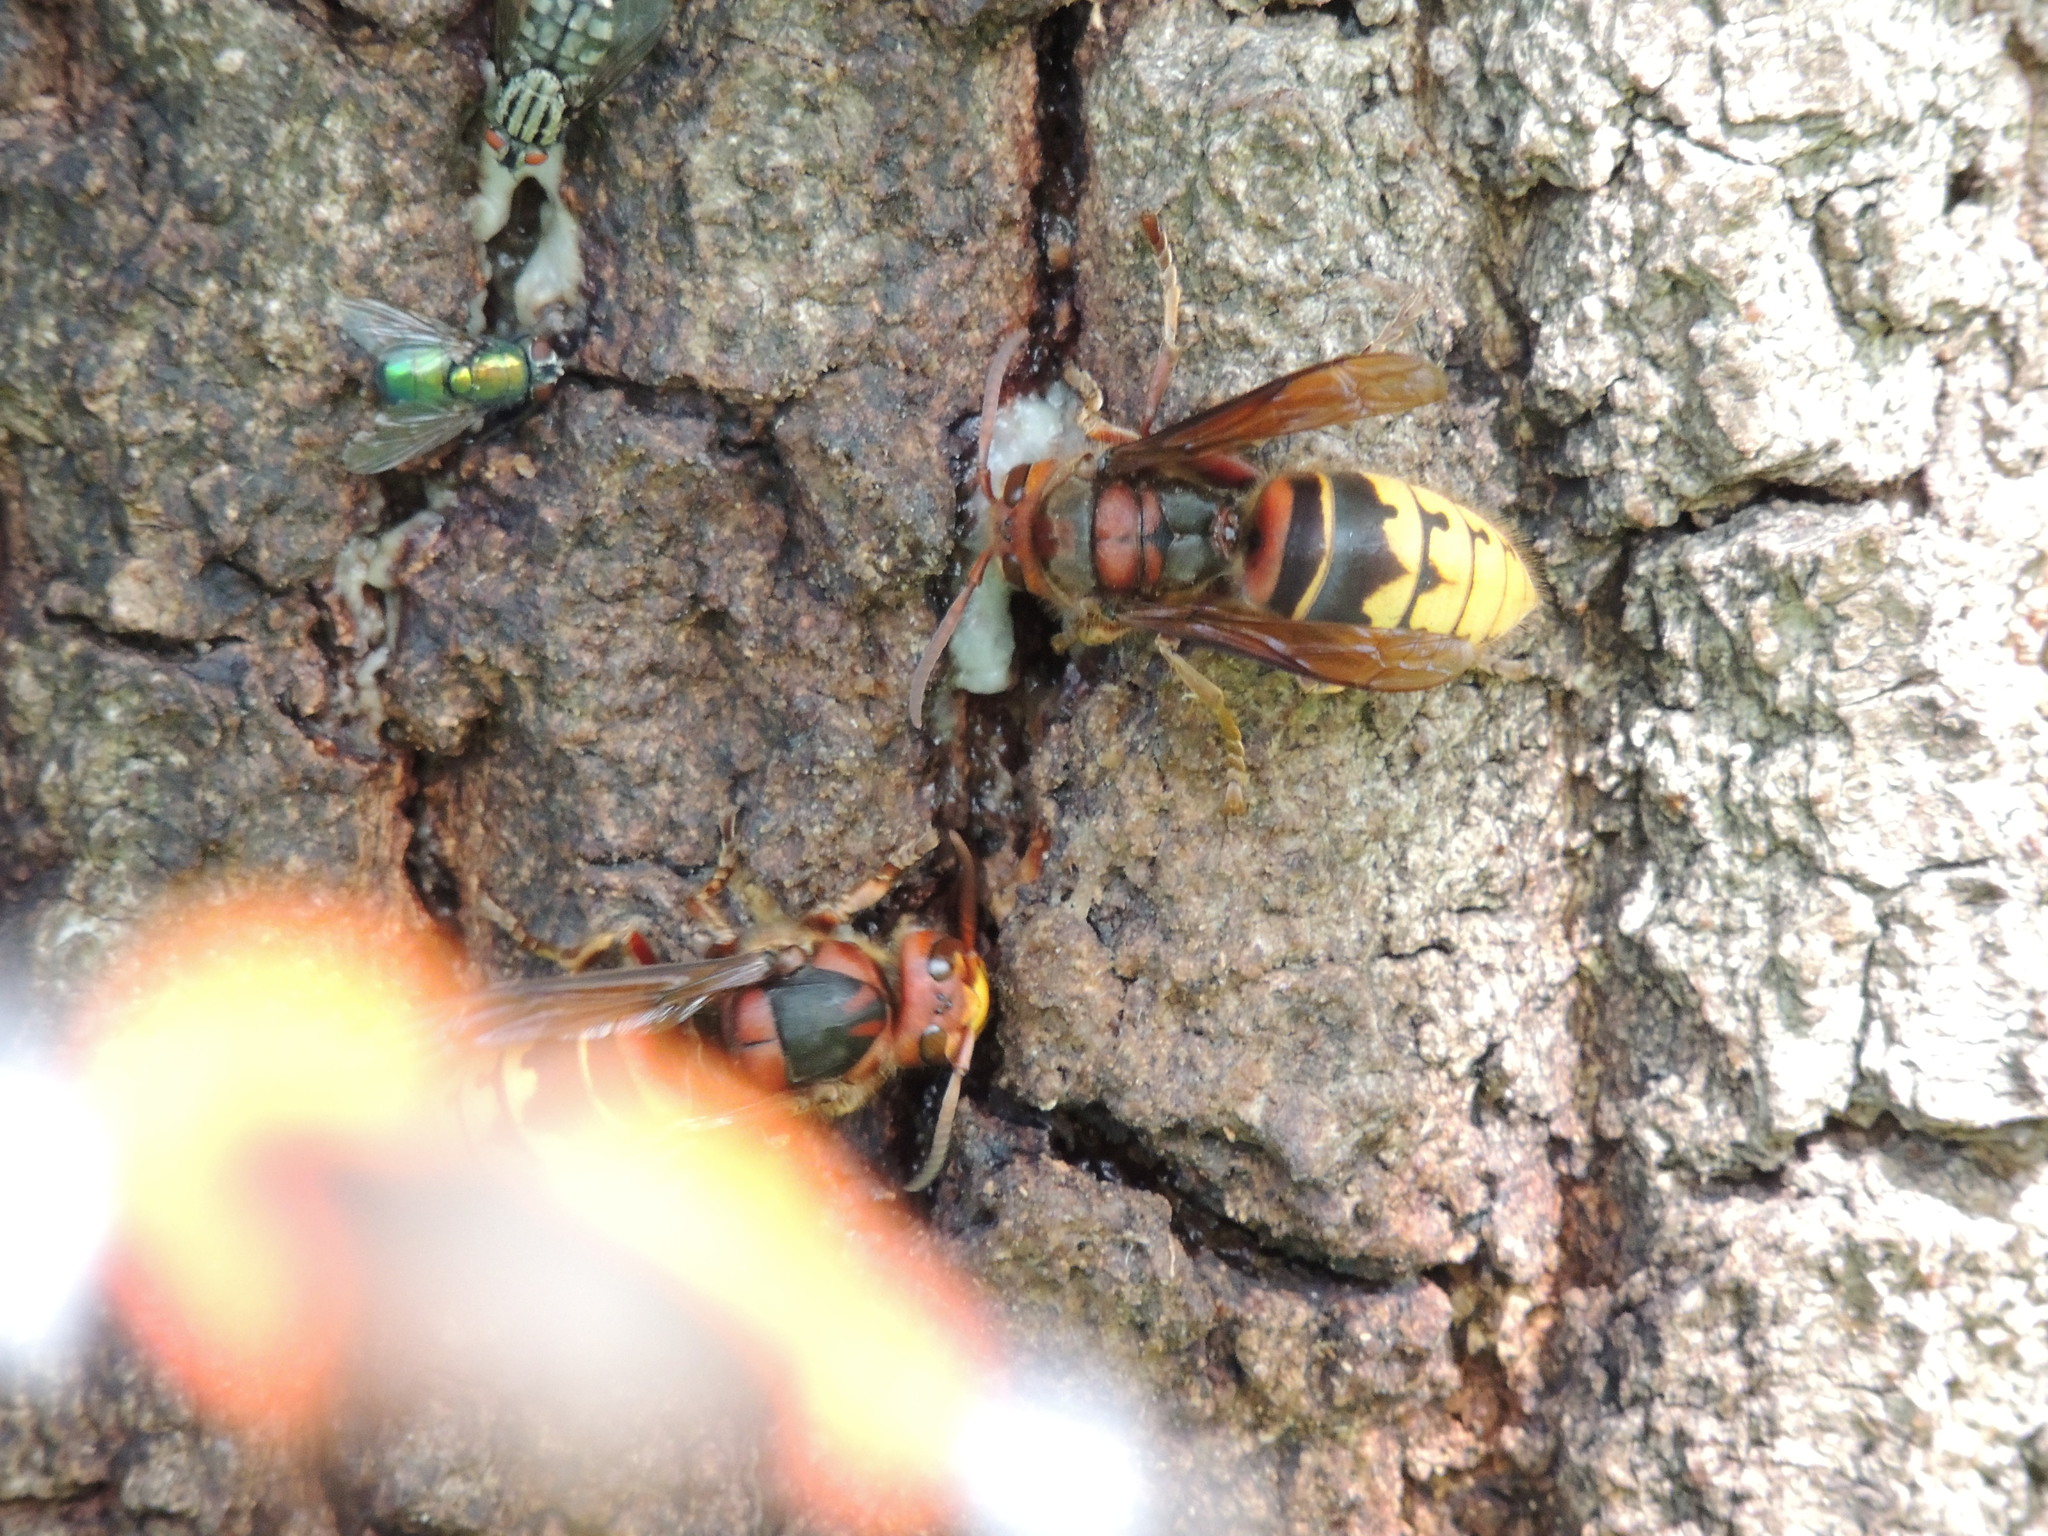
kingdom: Animalia
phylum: Arthropoda
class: Insecta
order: Hymenoptera
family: Vespidae
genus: Vespa
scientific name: Vespa crabro
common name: Hornet
